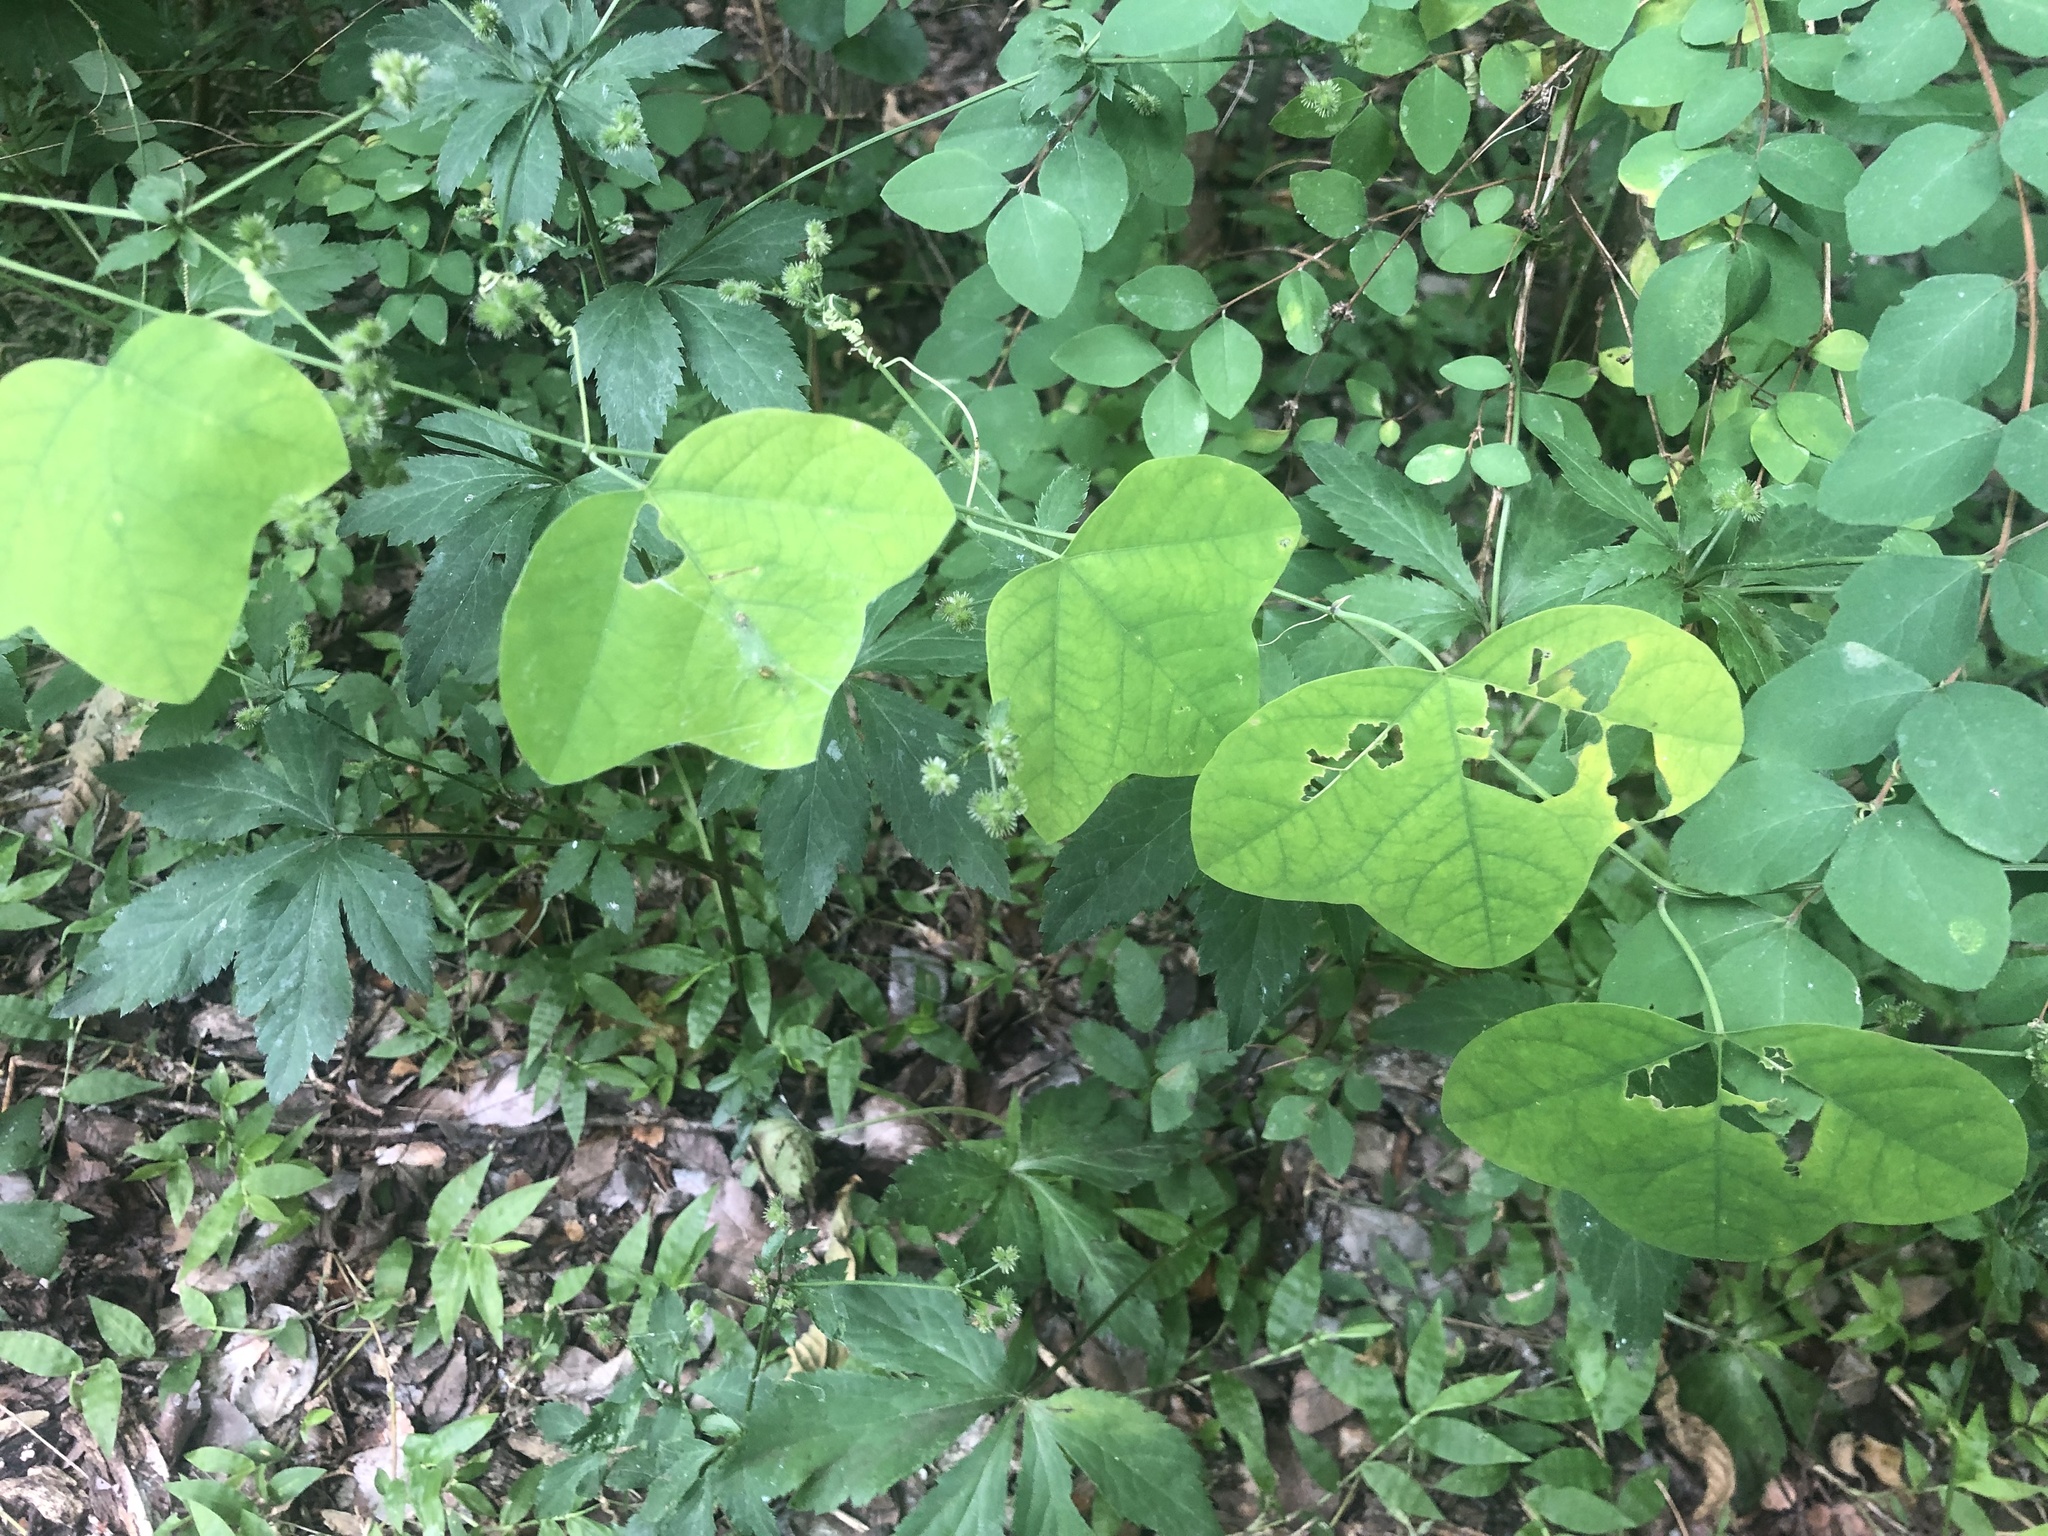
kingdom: Plantae
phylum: Tracheophyta
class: Magnoliopsida
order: Malpighiales
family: Passifloraceae
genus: Passiflora
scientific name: Passiflora lutea
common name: Yellow passionflower
